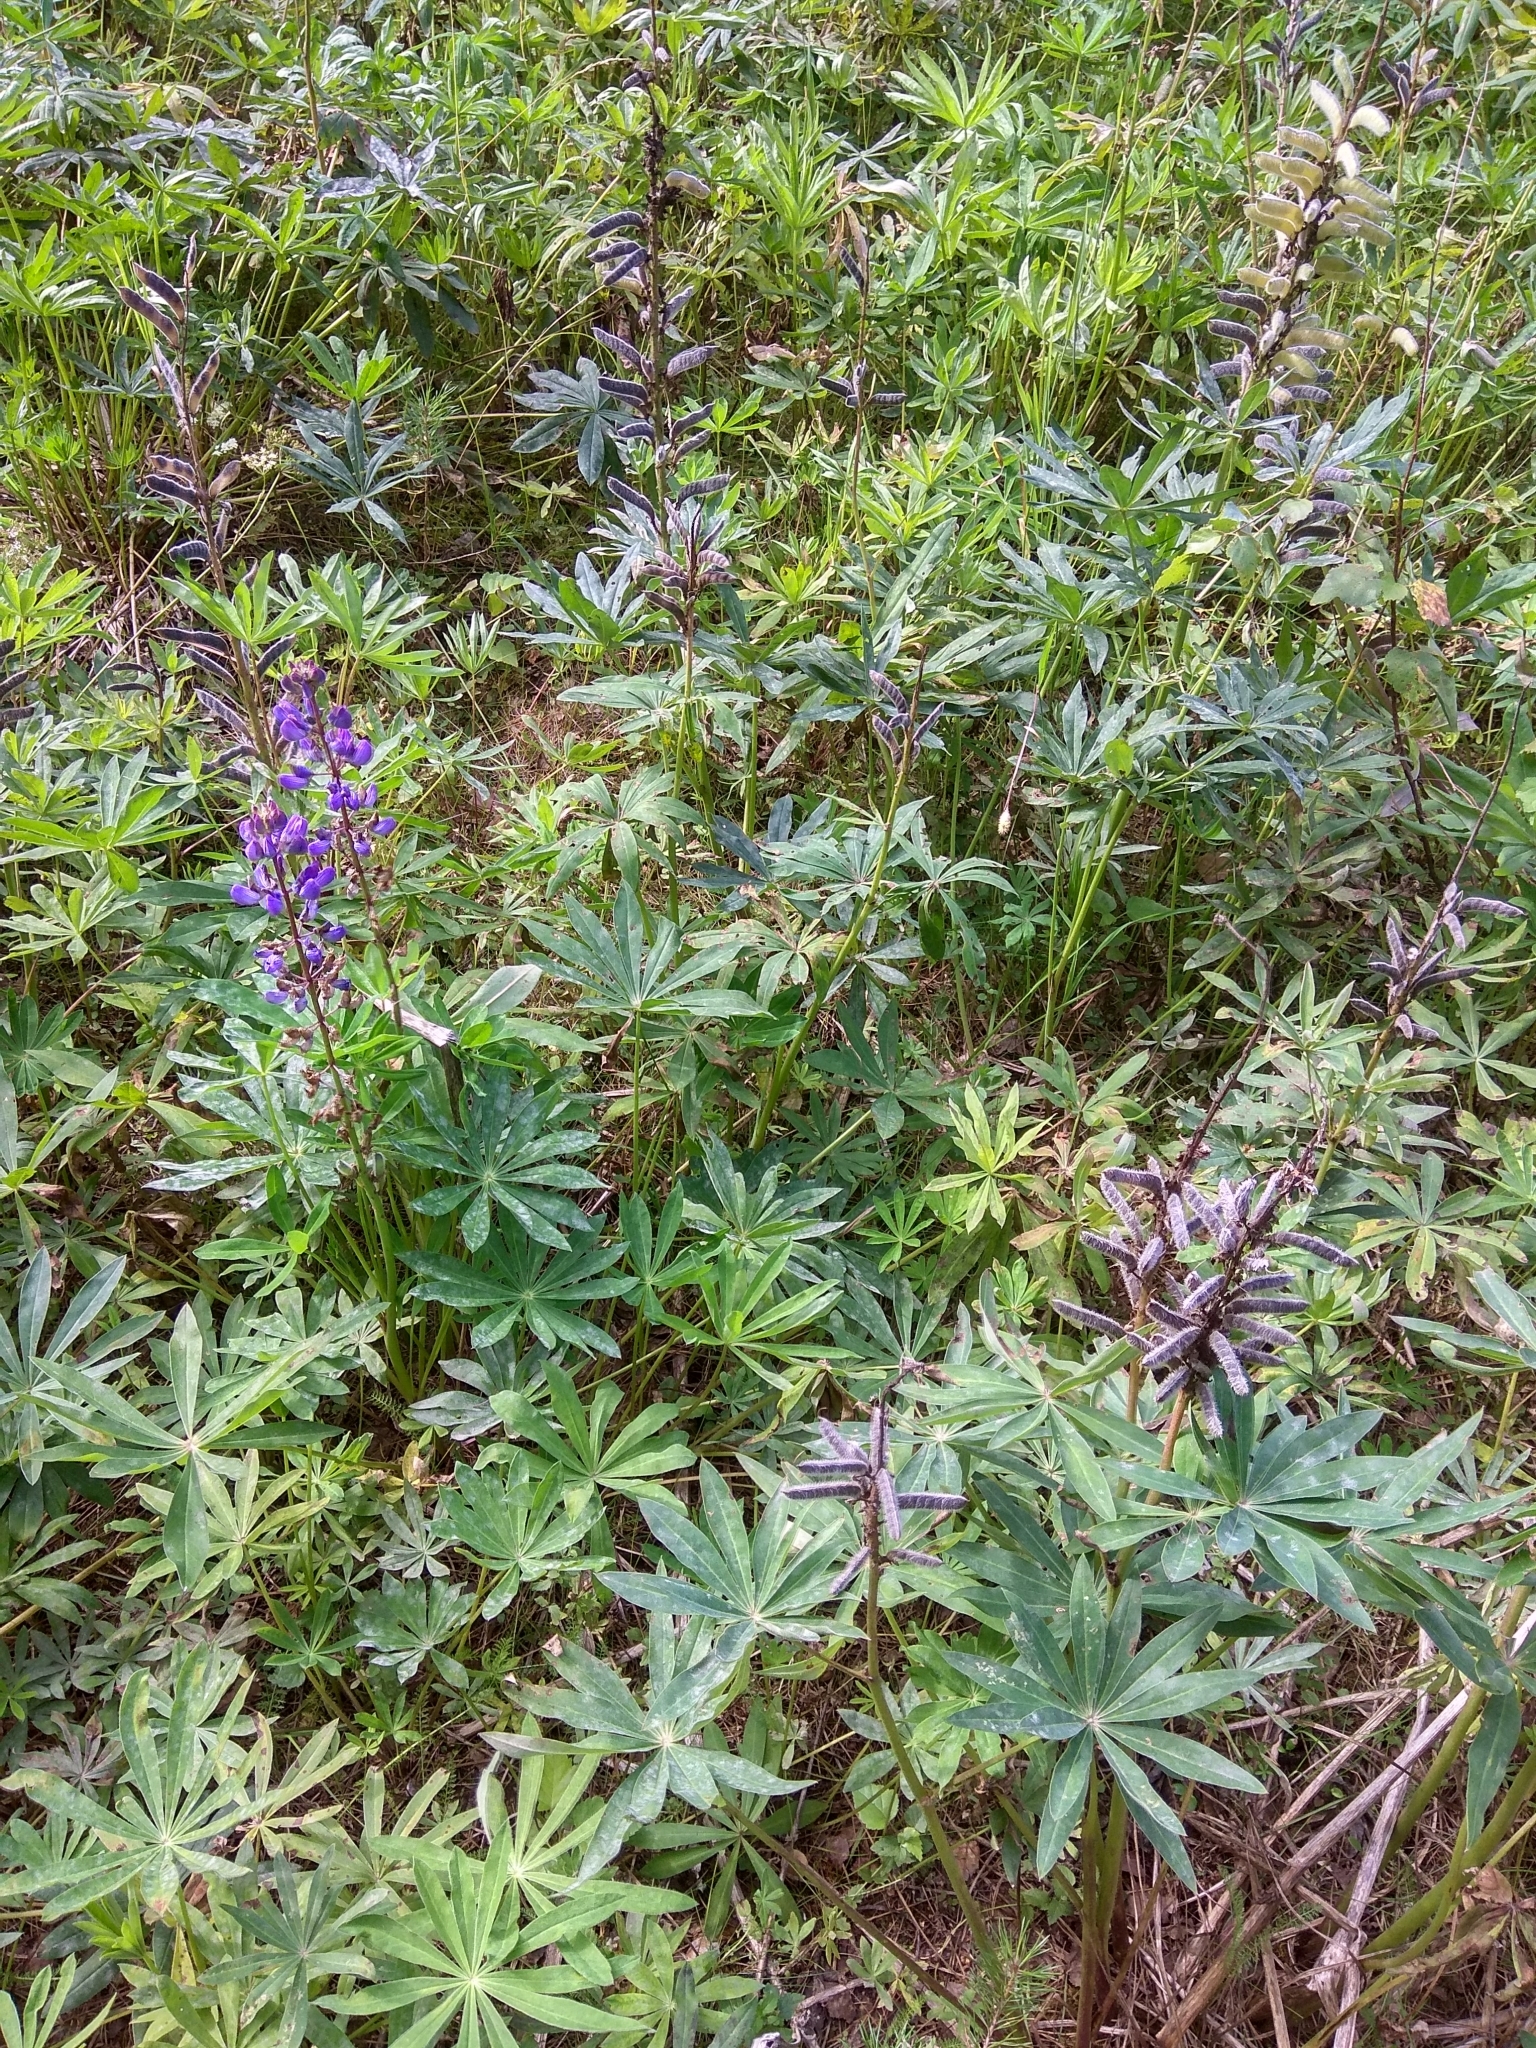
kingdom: Plantae
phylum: Tracheophyta
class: Magnoliopsida
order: Fabales
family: Fabaceae
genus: Lupinus
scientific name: Lupinus polyphyllus
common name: Garden lupin
